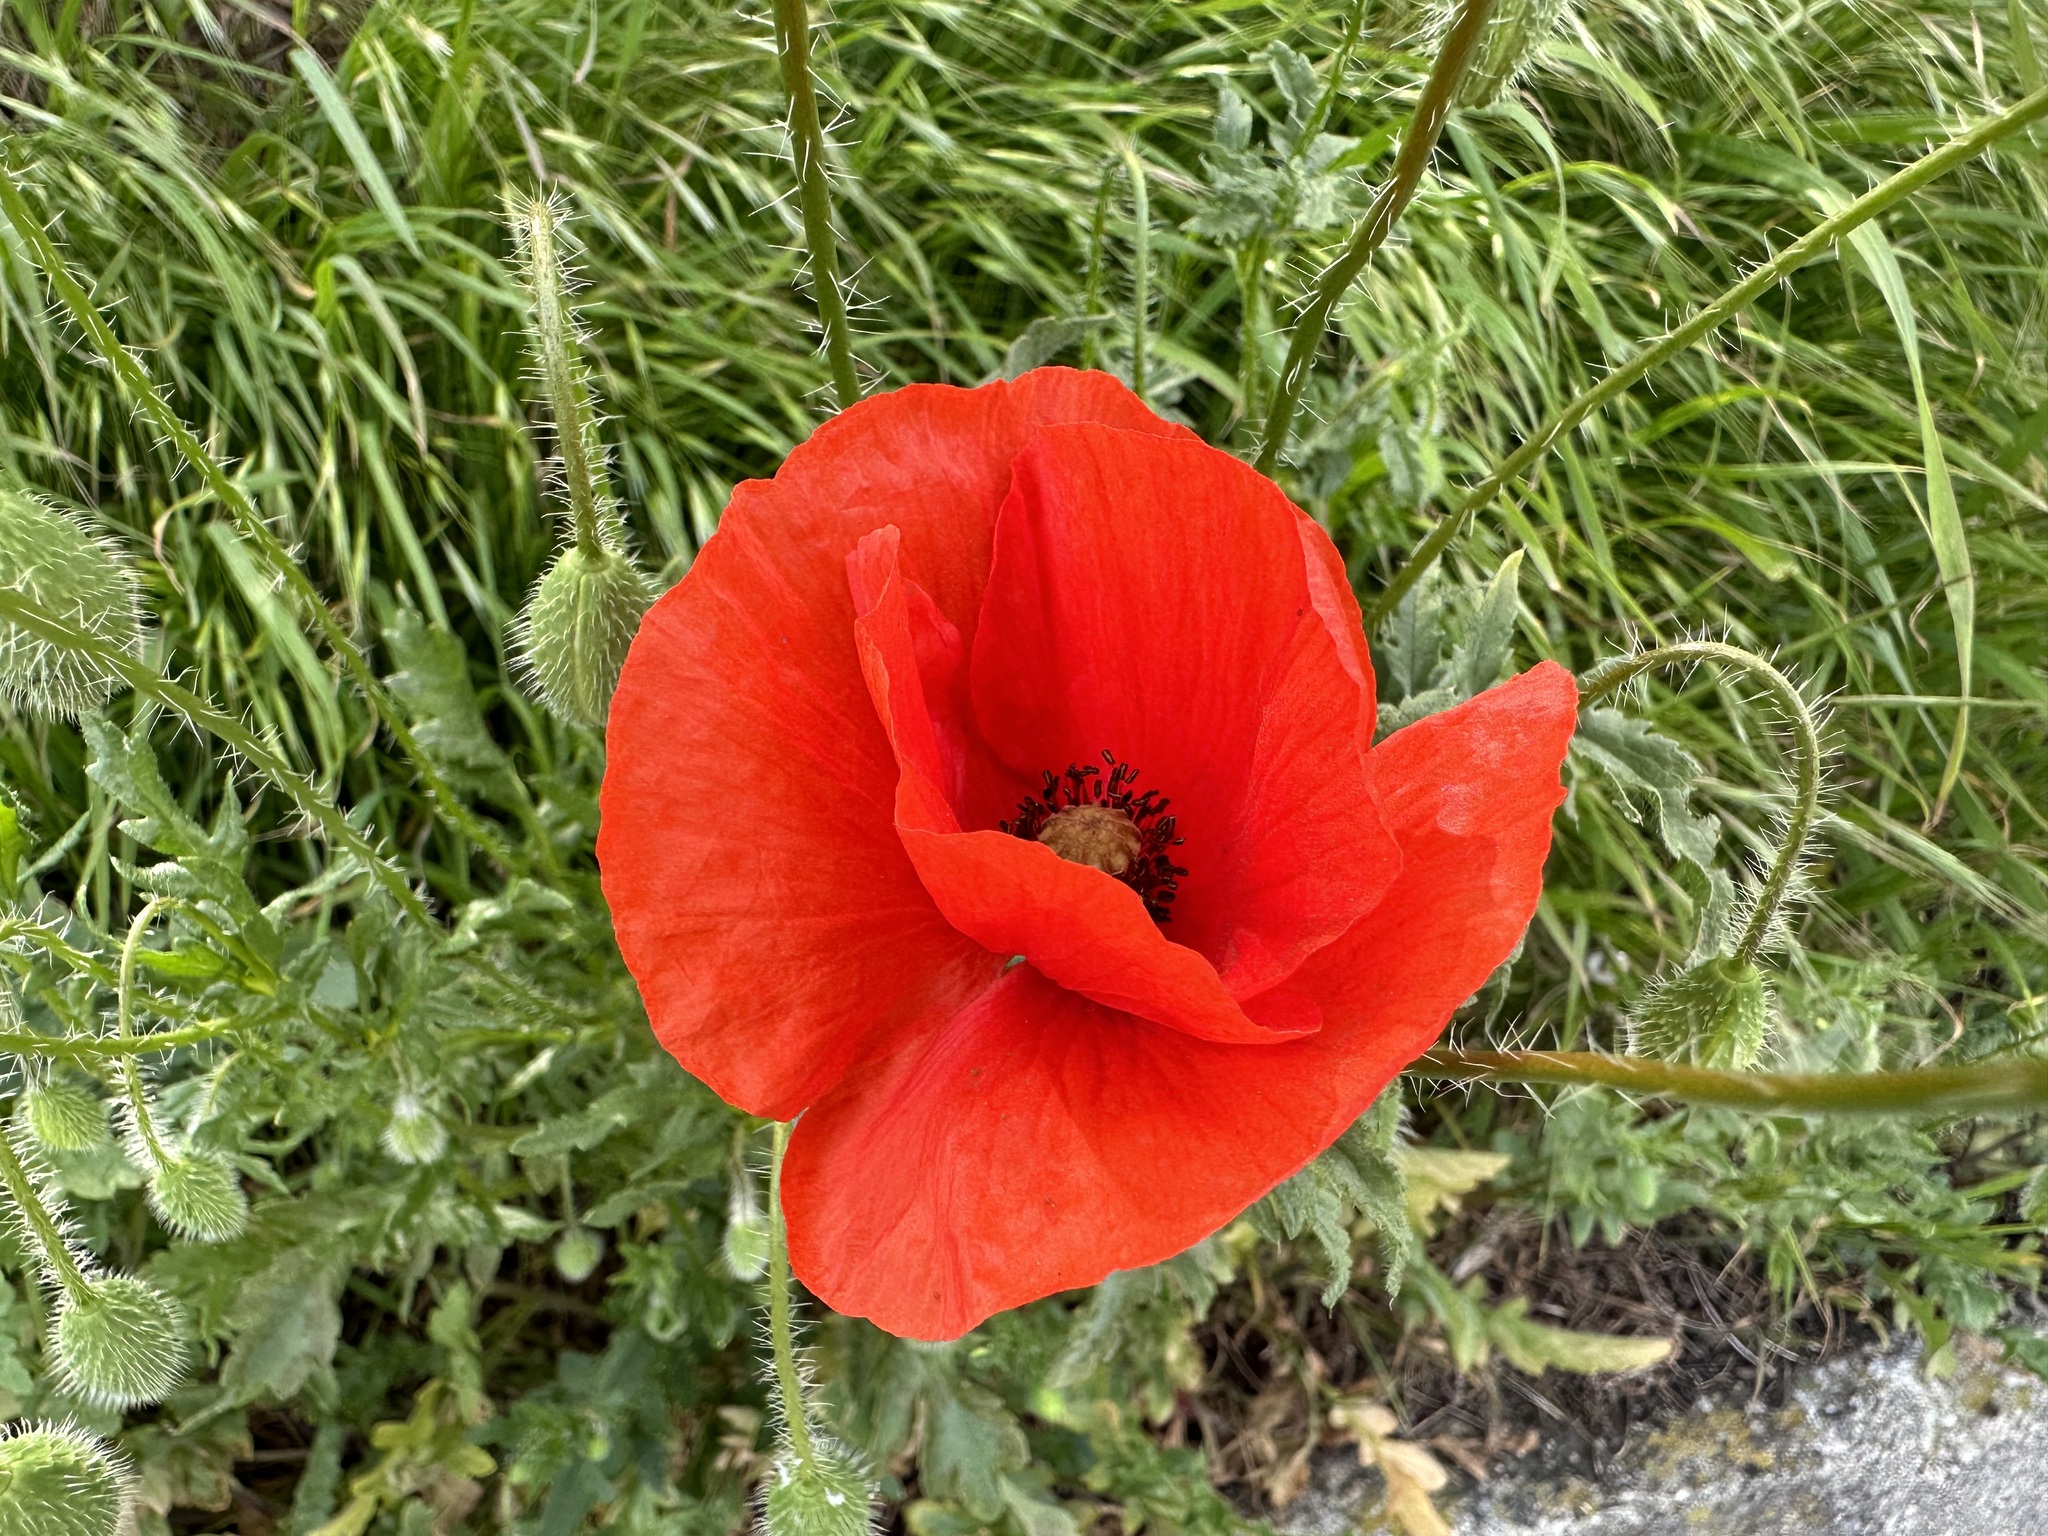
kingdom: Plantae
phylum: Tracheophyta
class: Magnoliopsida
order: Ranunculales
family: Papaveraceae
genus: Papaver
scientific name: Papaver rhoeas
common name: Corn poppy
